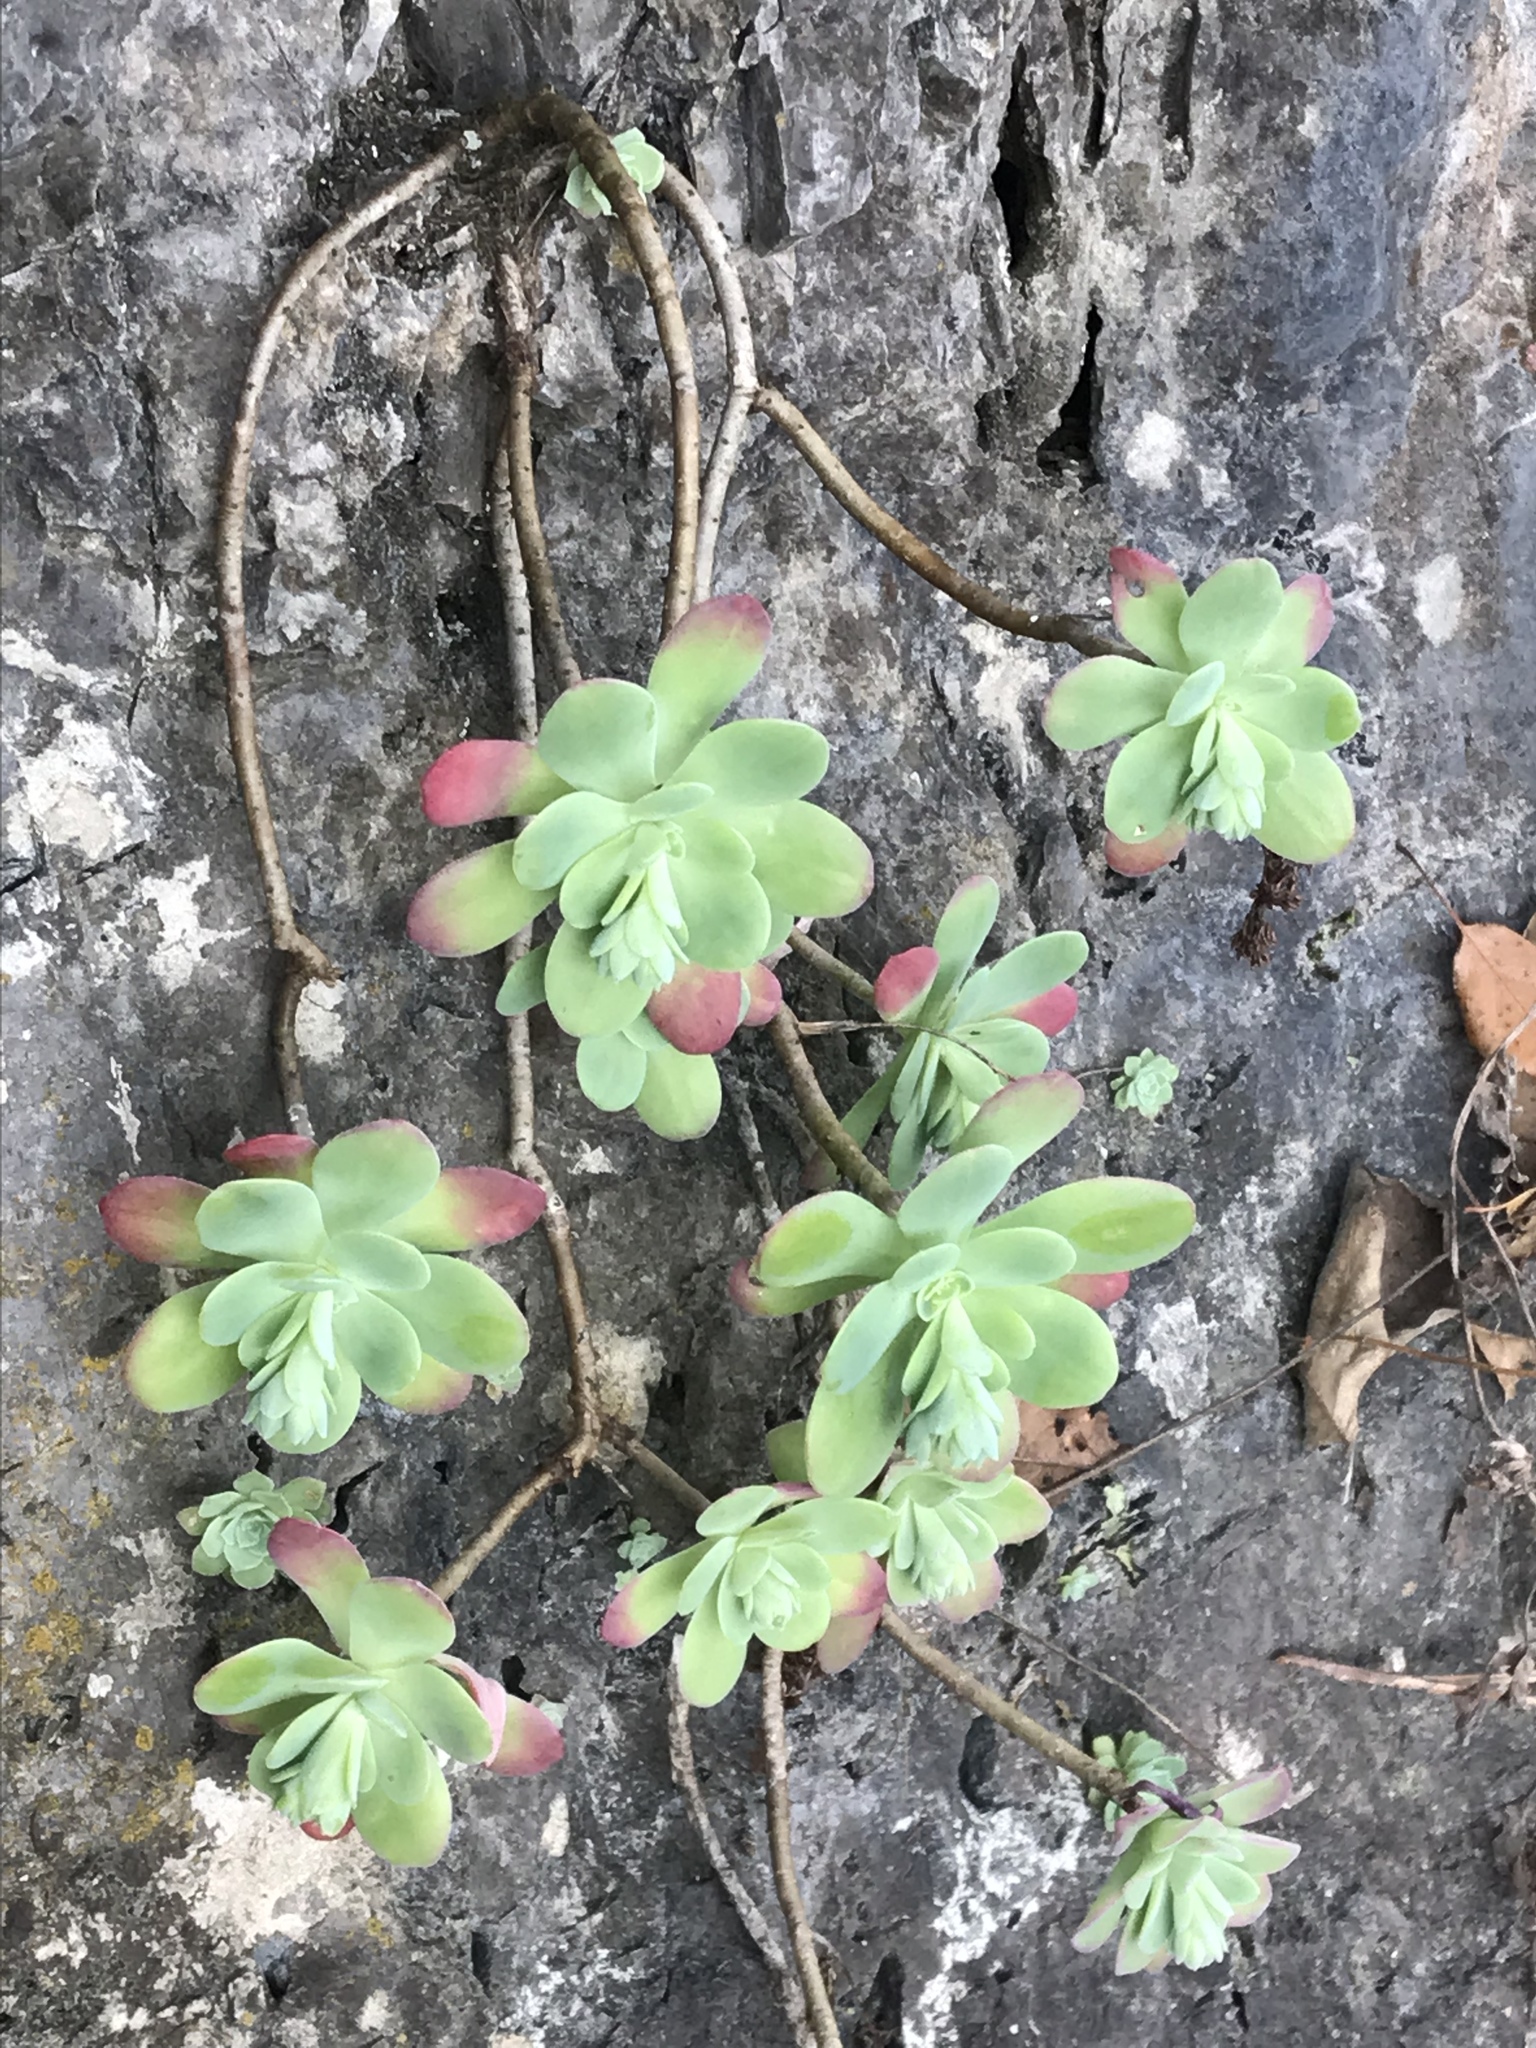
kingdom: Plantae
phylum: Tracheophyta
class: Magnoliopsida
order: Saxifragales
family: Crassulaceae
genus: Sedum
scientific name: Sedum palmeri
